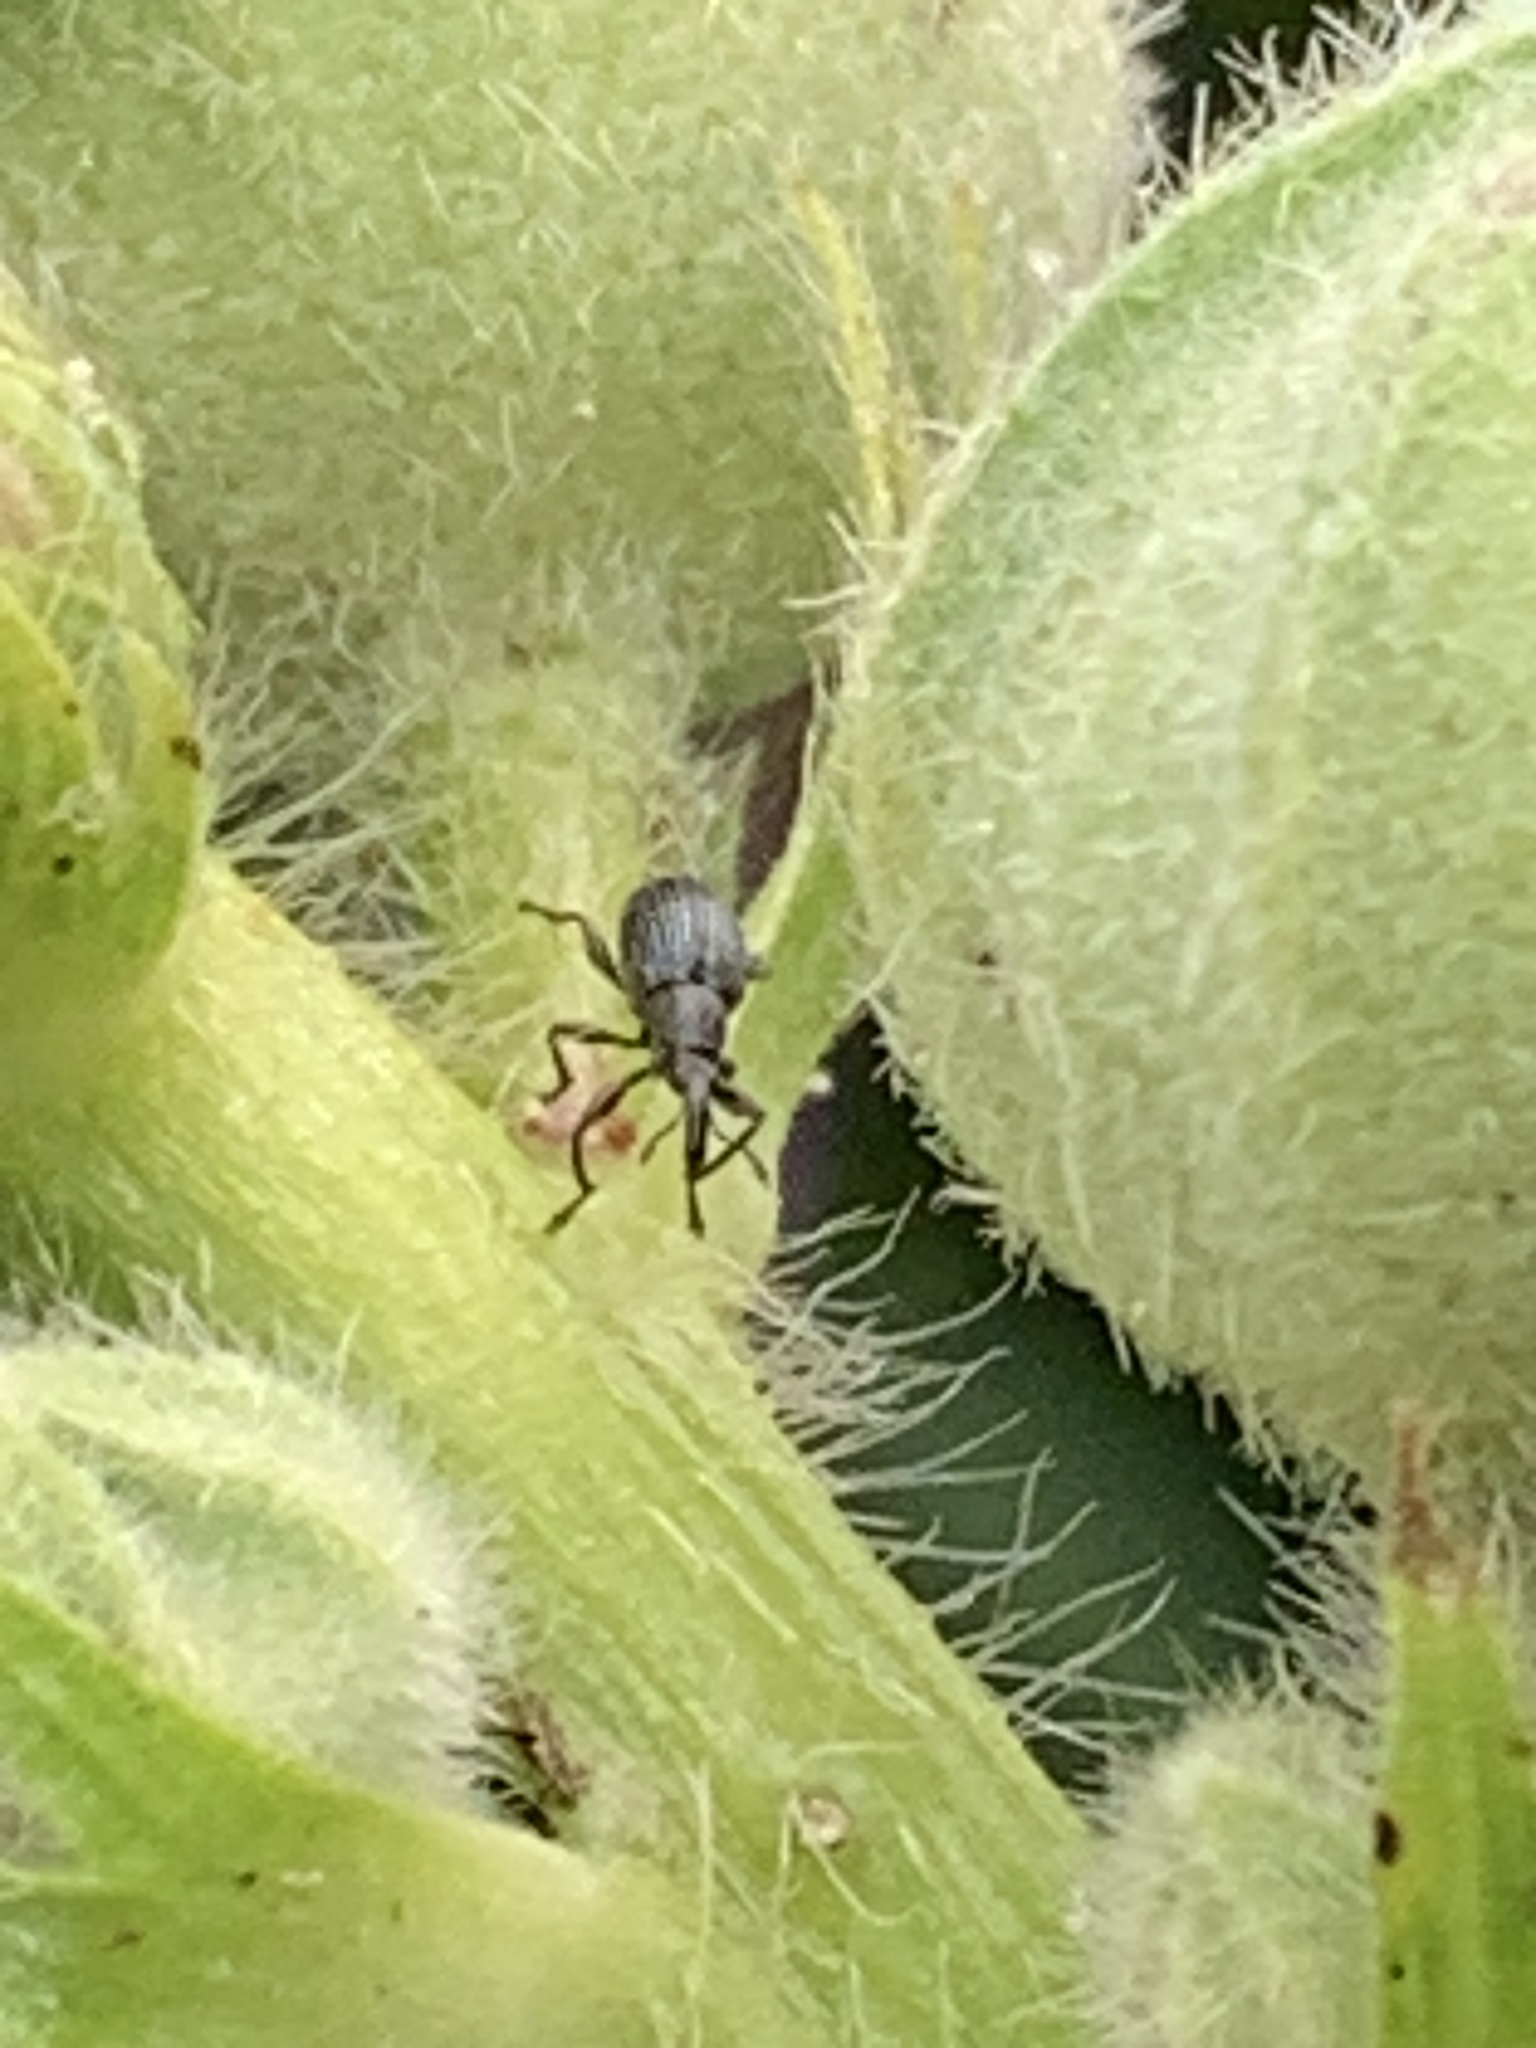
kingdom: Animalia
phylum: Arthropoda
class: Insecta
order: Coleoptera
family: Brentidae
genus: Rhopalapion
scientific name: Rhopalapion longirostre
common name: Hollyhock weevil
